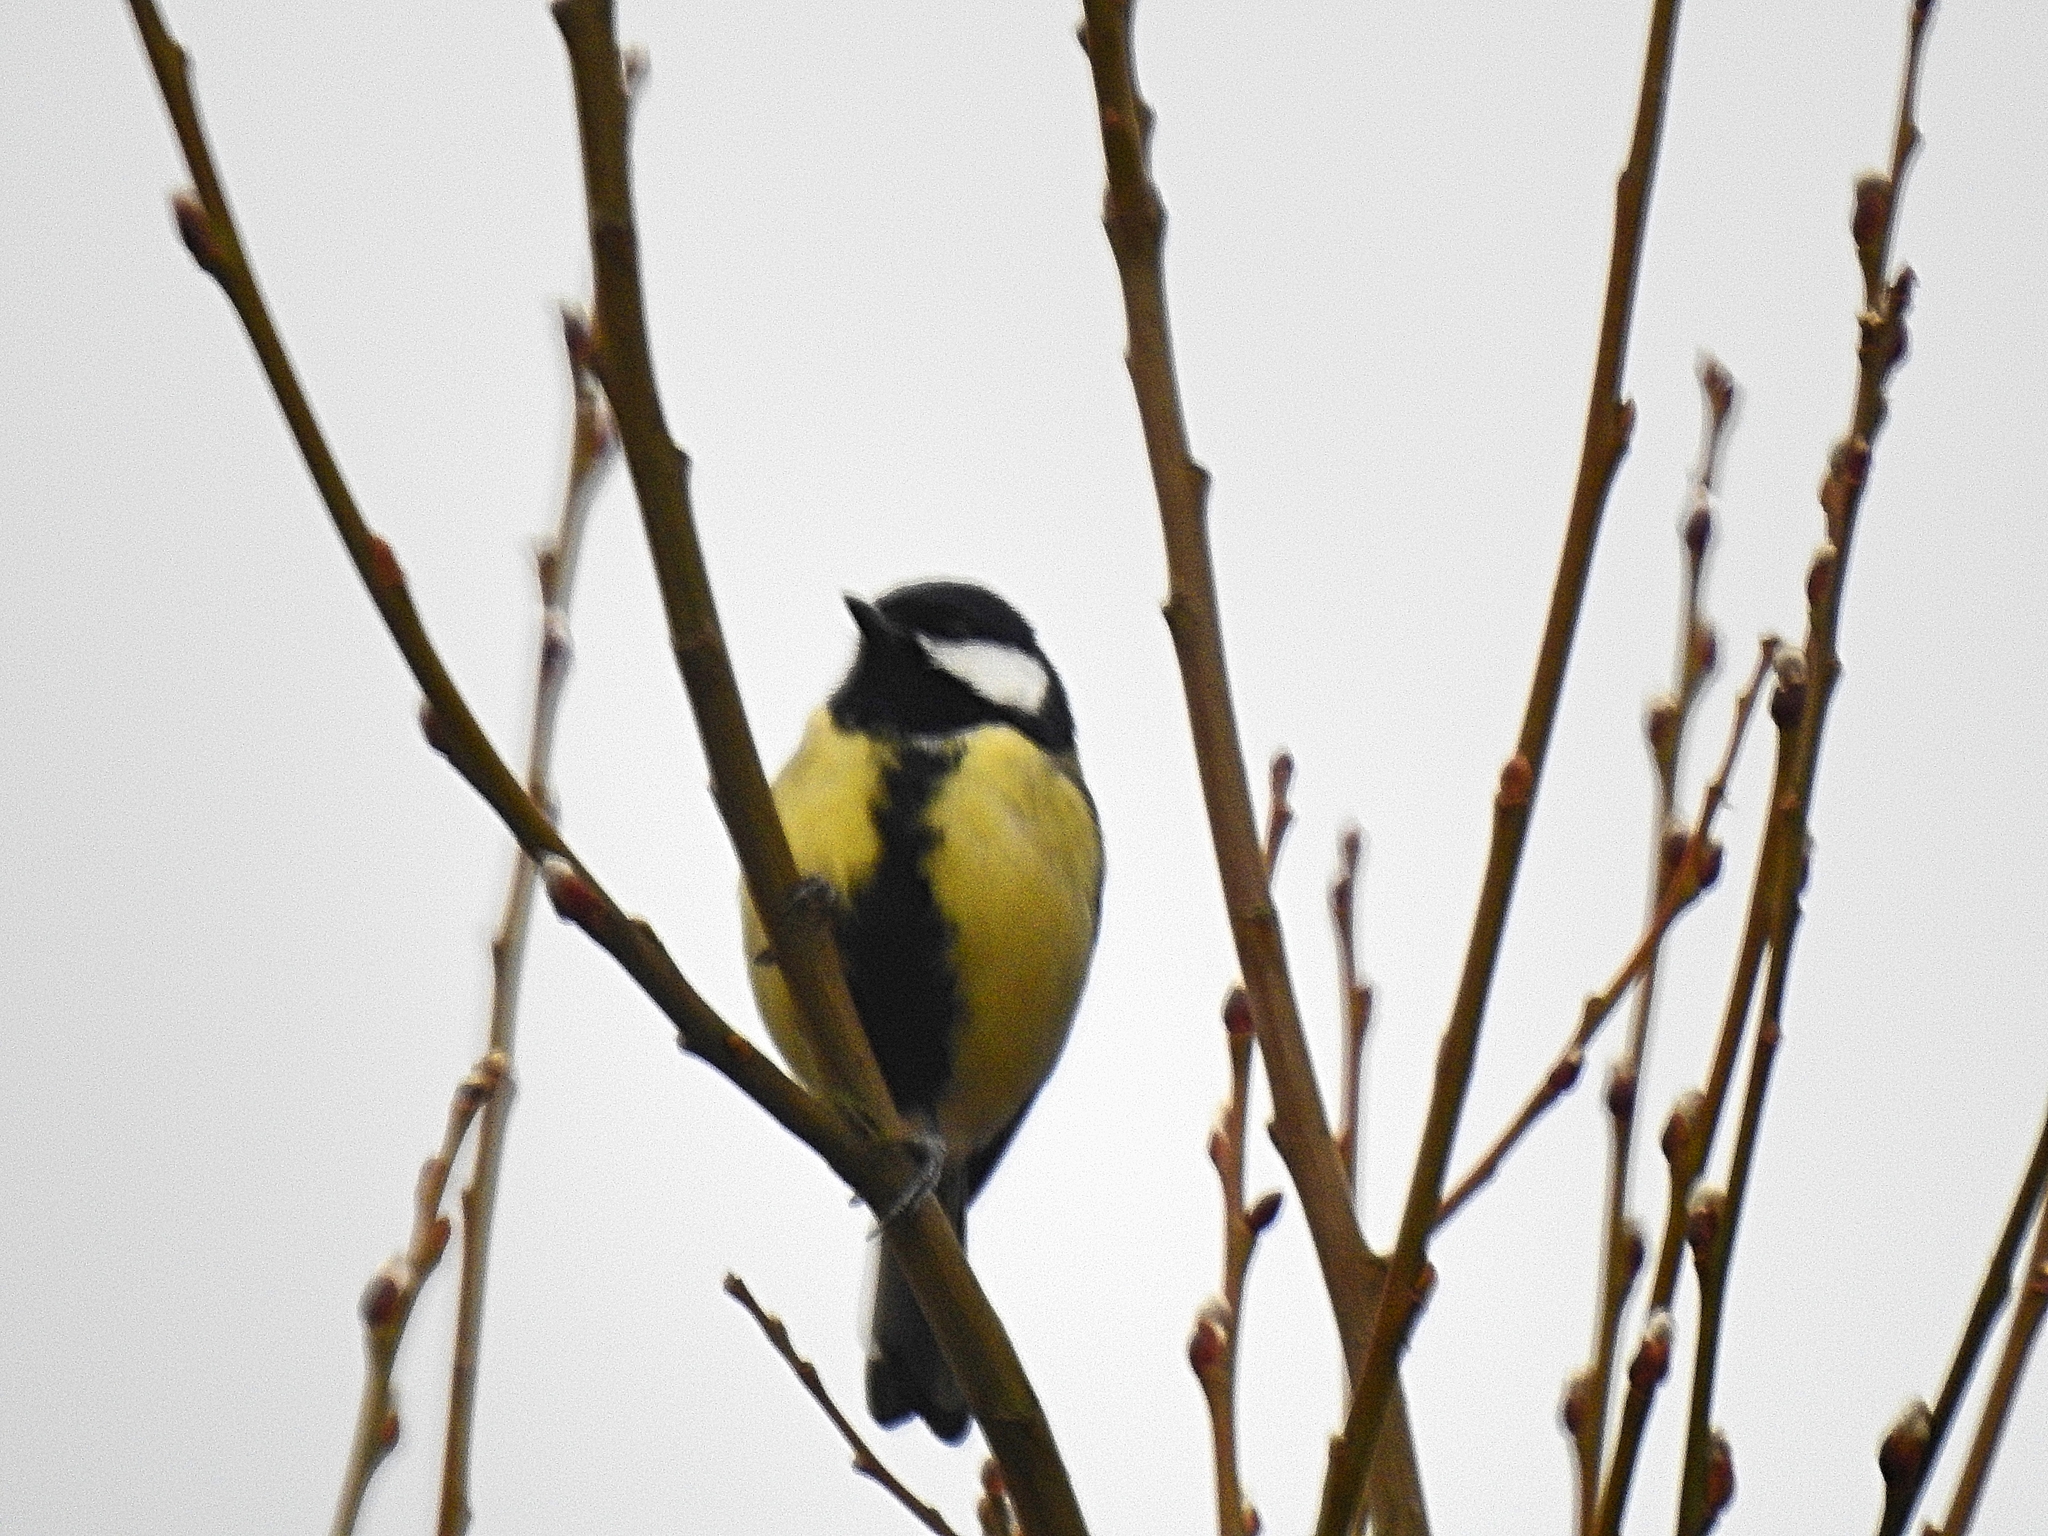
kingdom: Animalia
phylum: Chordata
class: Aves
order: Passeriformes
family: Paridae
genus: Parus
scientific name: Parus major
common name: Great tit
